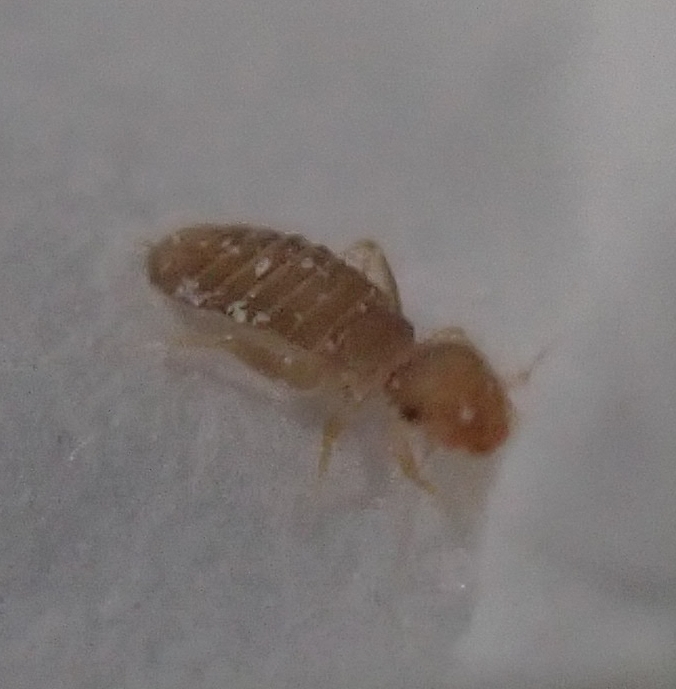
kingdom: Animalia
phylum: Arthropoda
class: Insecta
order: Psocodea
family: Liposcelididae
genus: Liposcelis
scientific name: Liposcelis bostrychophila
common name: Bark lice
